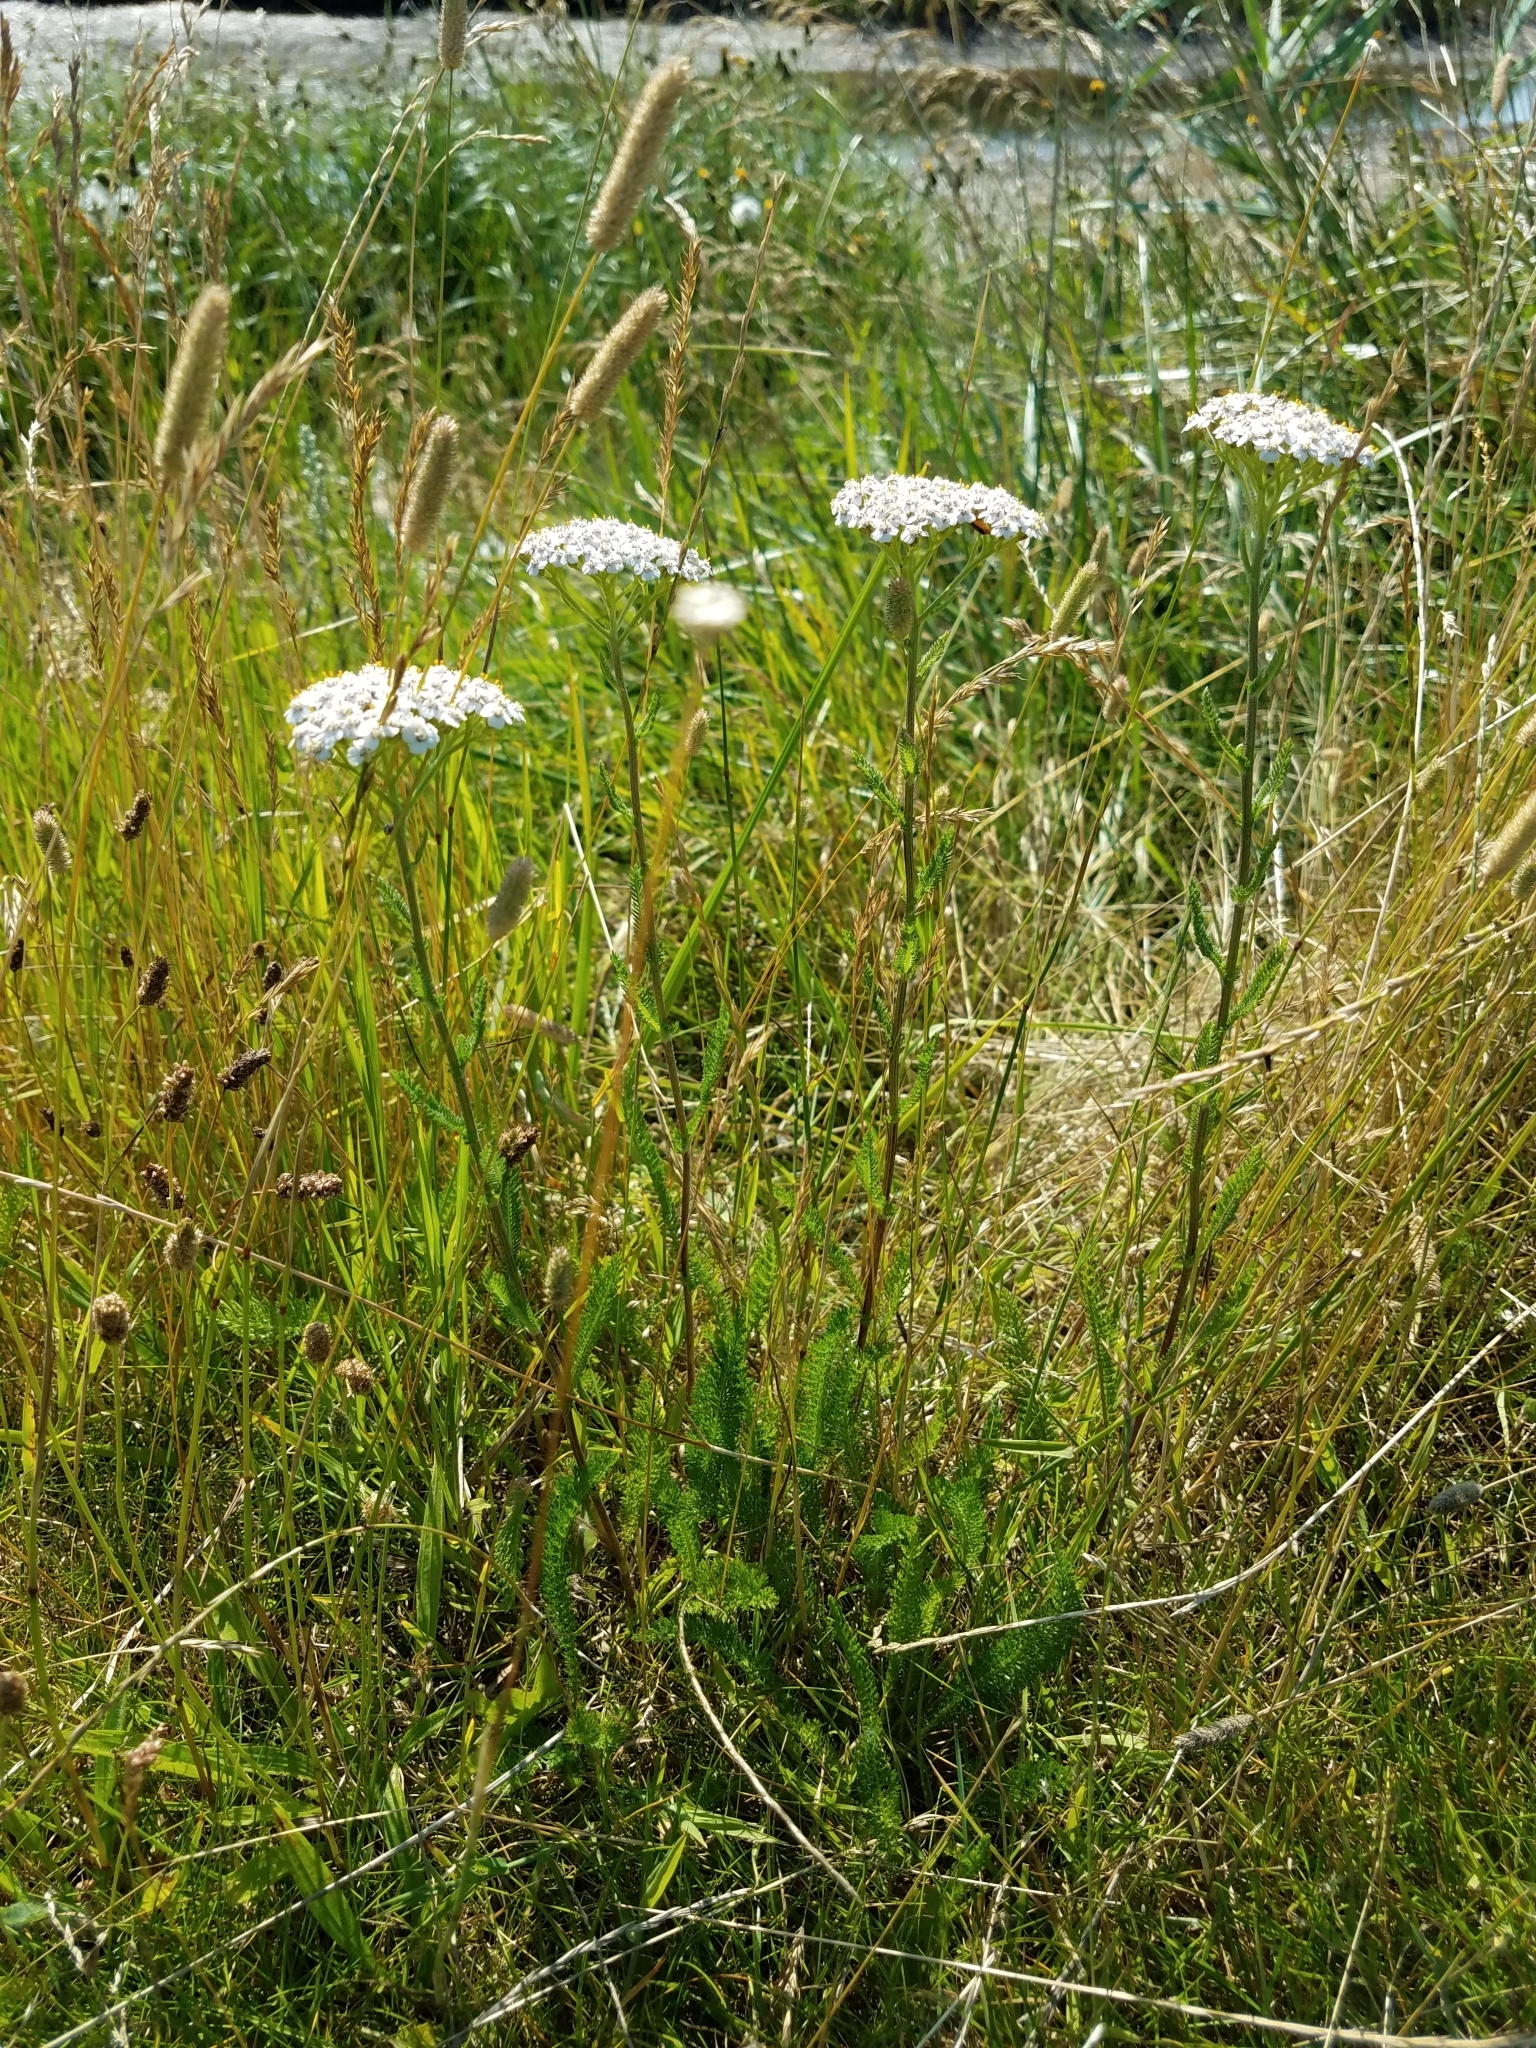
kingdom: Plantae
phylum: Tracheophyta
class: Magnoliopsida
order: Asterales
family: Asteraceae
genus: Achillea
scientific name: Achillea millefolium
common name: Yarrow
